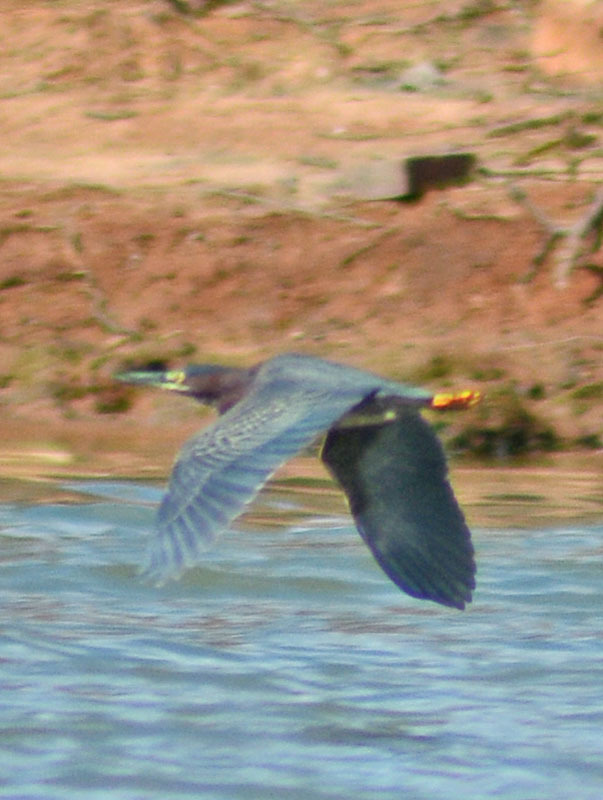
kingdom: Animalia
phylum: Chordata
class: Aves
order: Pelecaniformes
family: Ardeidae
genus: Butorides
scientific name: Butorides virescens
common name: Green heron
